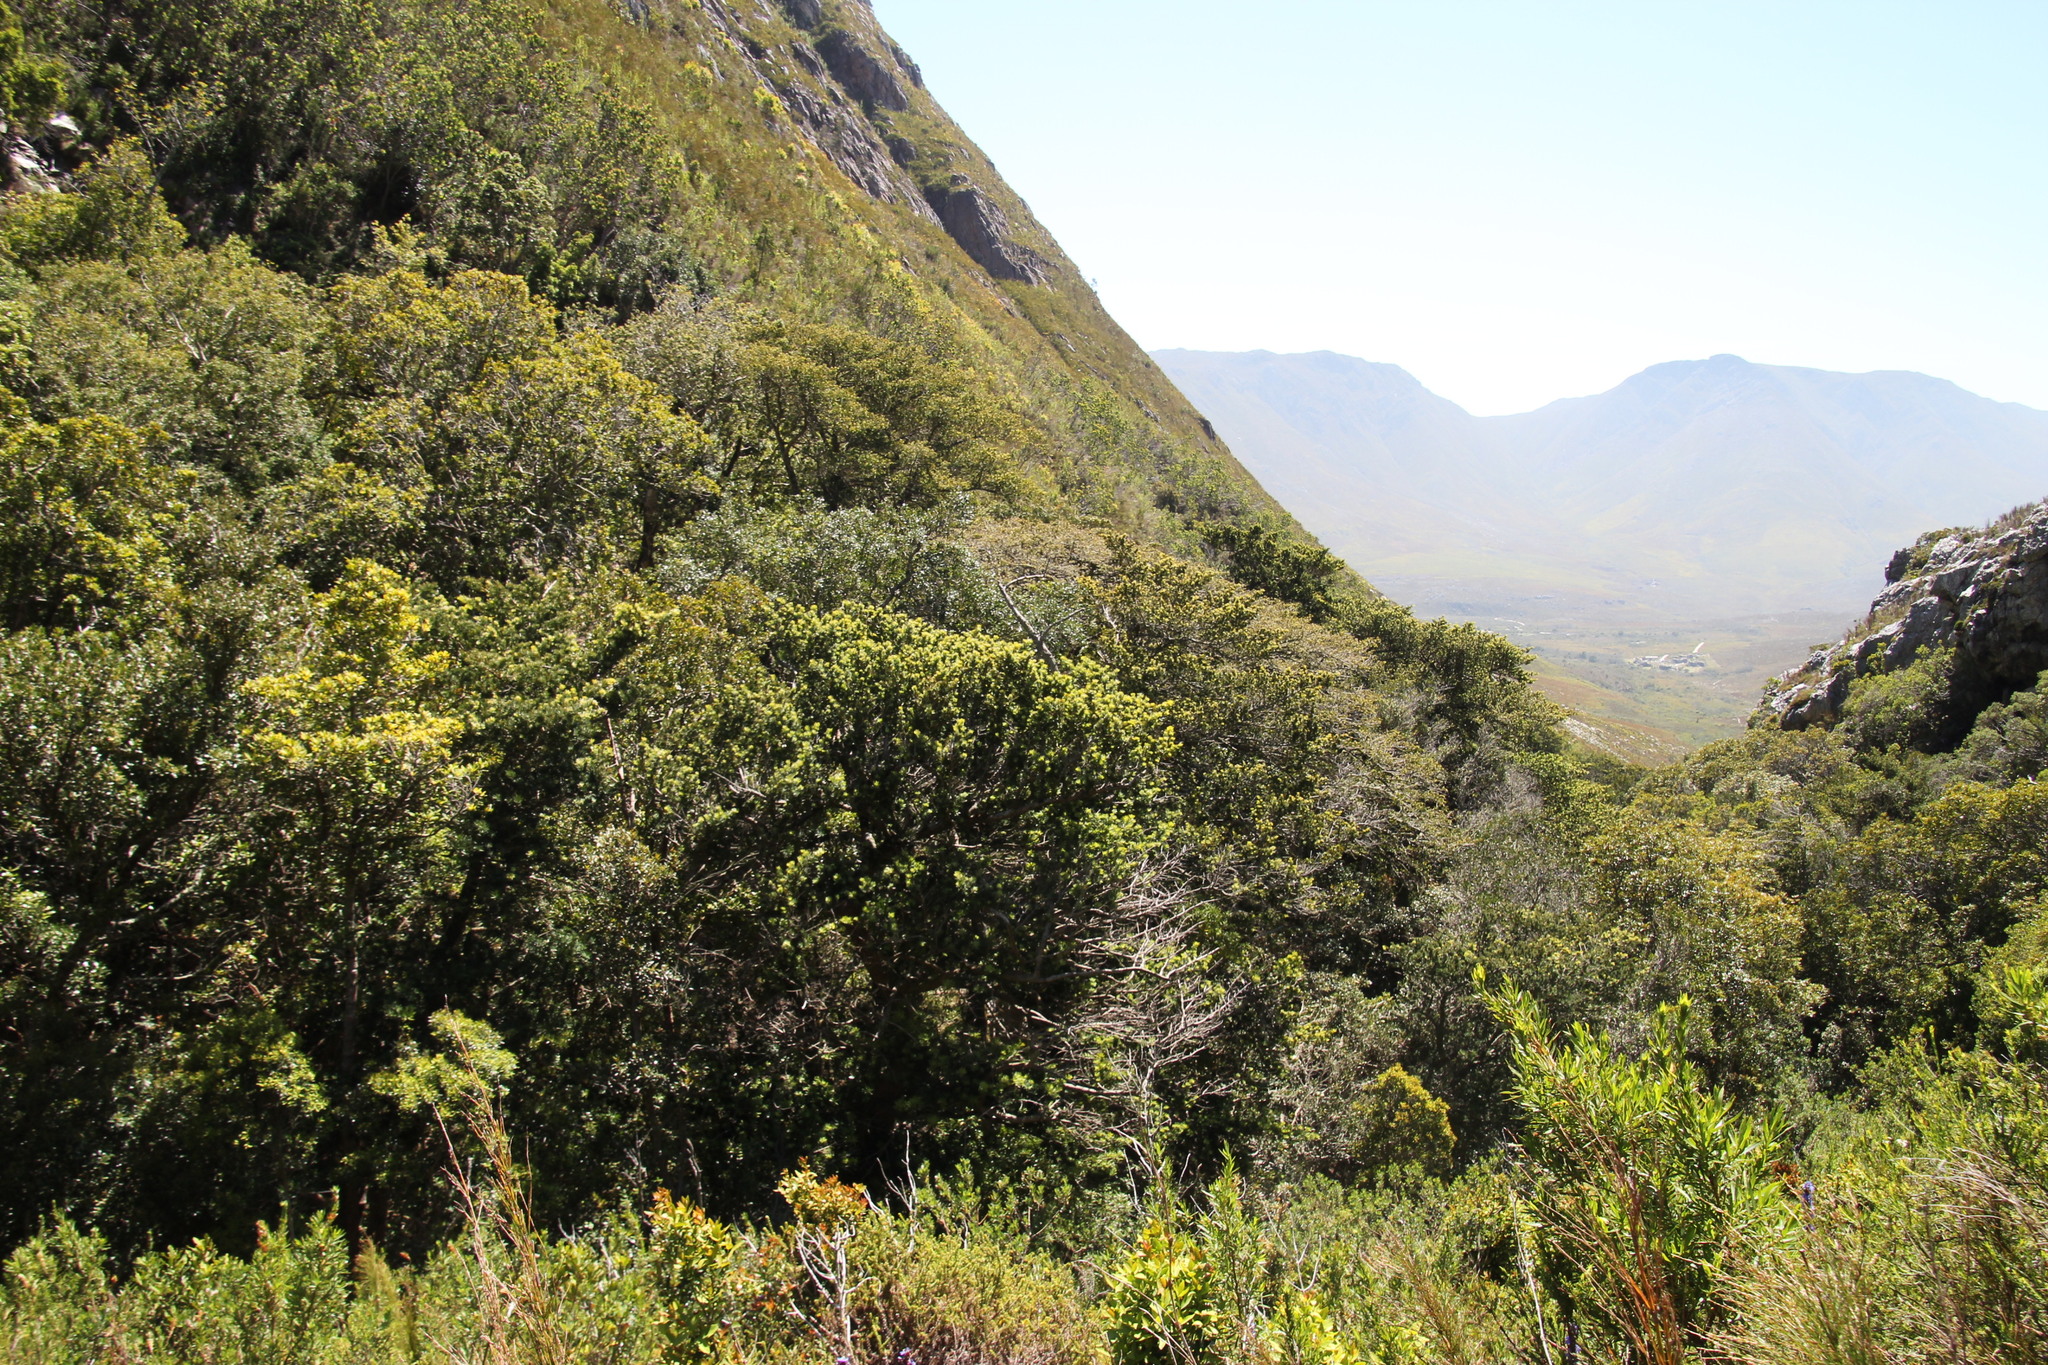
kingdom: Plantae
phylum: Tracheophyta
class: Pinopsida
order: Pinales
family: Podocarpaceae
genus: Podocarpus
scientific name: Podocarpus latifolius
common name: True yellowwood
